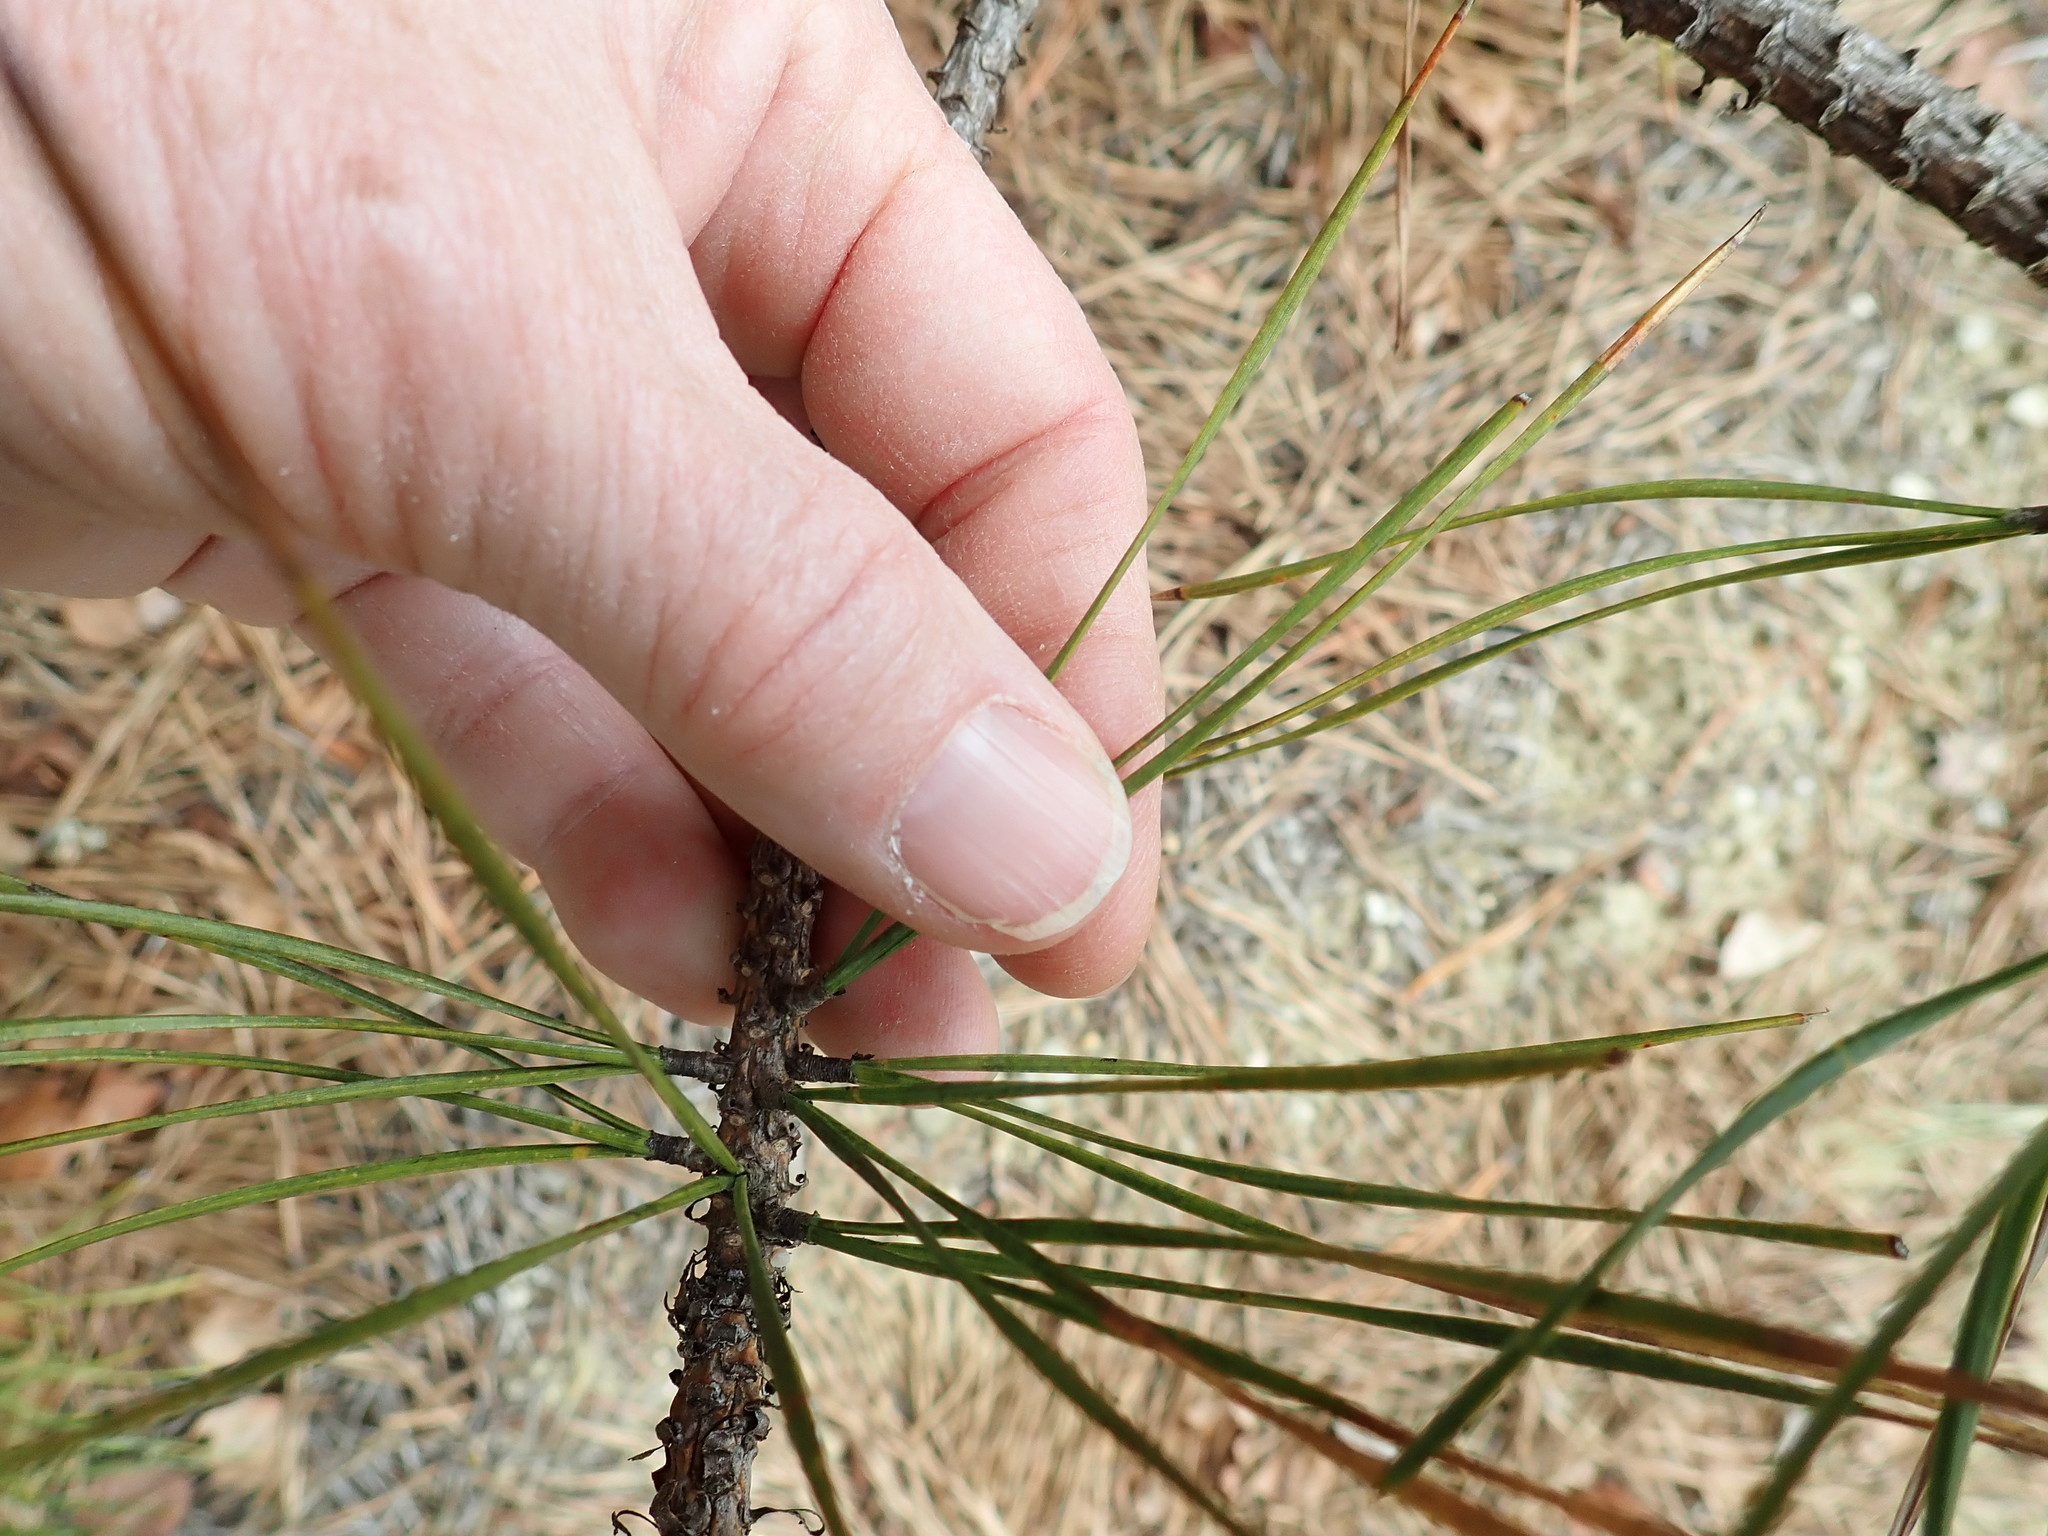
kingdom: Plantae
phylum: Tracheophyta
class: Pinopsida
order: Pinales
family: Pinaceae
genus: Pinus
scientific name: Pinus rigida
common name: Pitch pine
